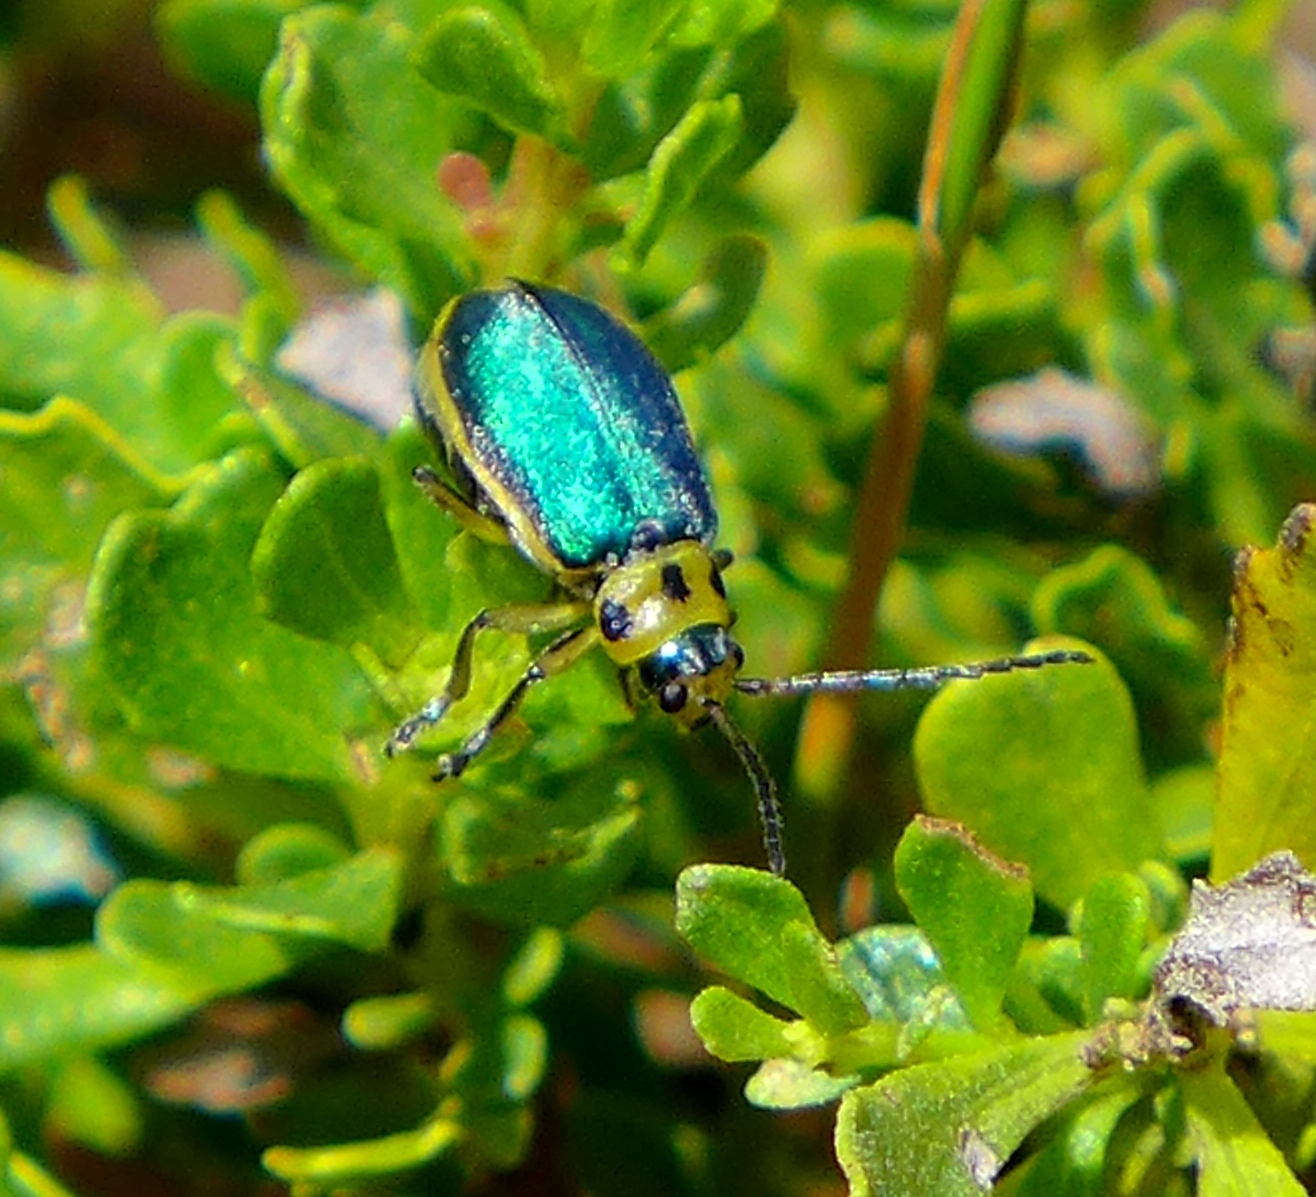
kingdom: Animalia
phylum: Arthropoda
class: Insecta
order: Coleoptera
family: Chrysomelidae
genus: Trirhabda
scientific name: Trirhabda flavolimbata
